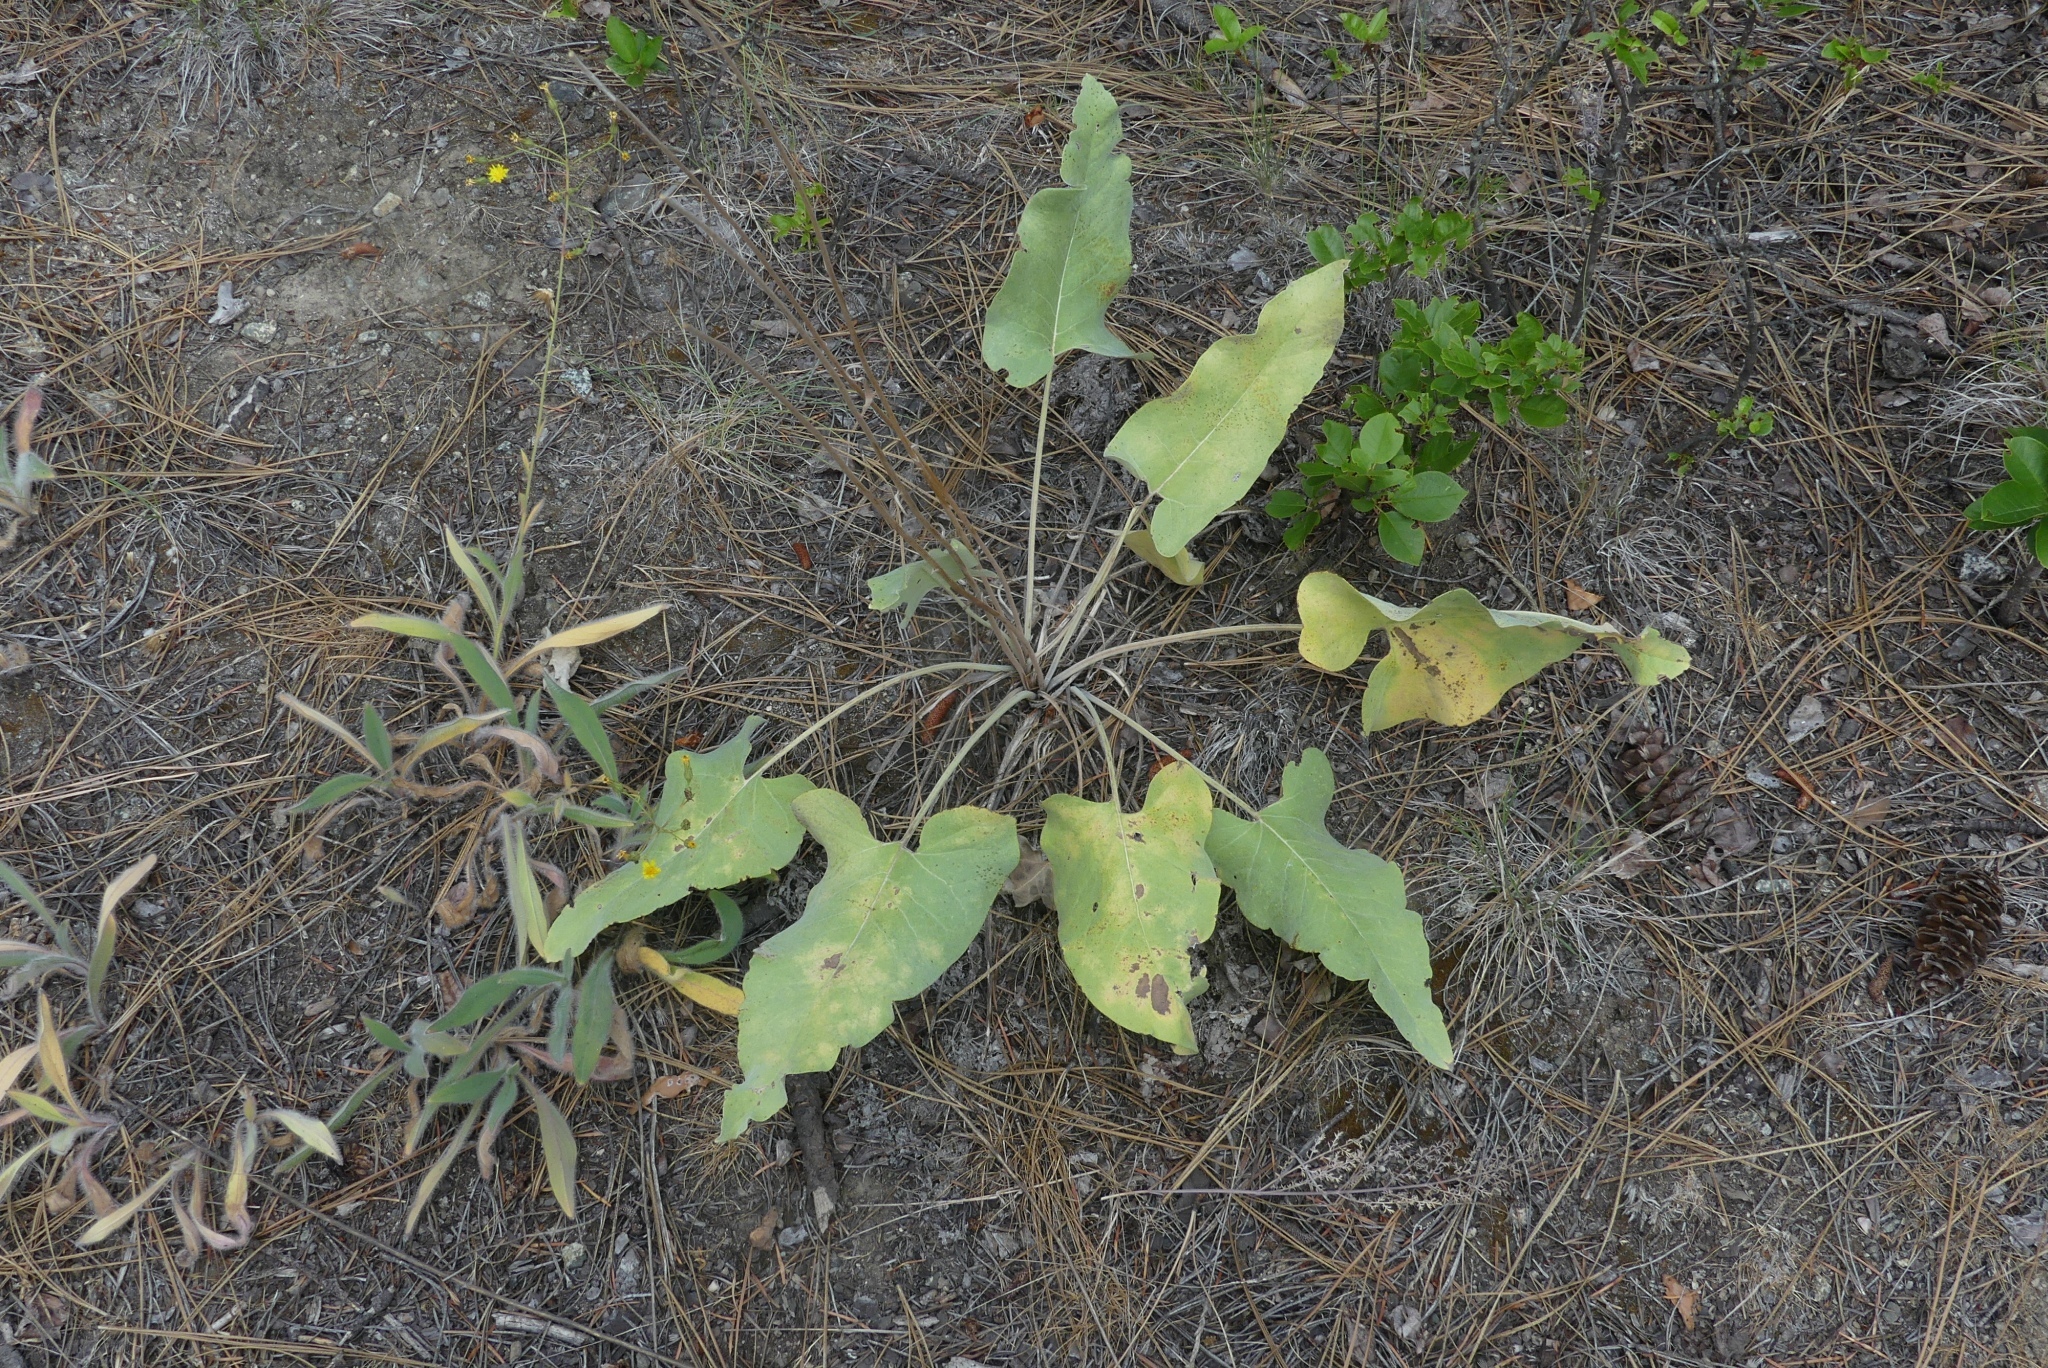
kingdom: Plantae
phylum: Tracheophyta
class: Magnoliopsida
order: Asterales
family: Asteraceae
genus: Wyethia
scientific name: Wyethia sagittata
